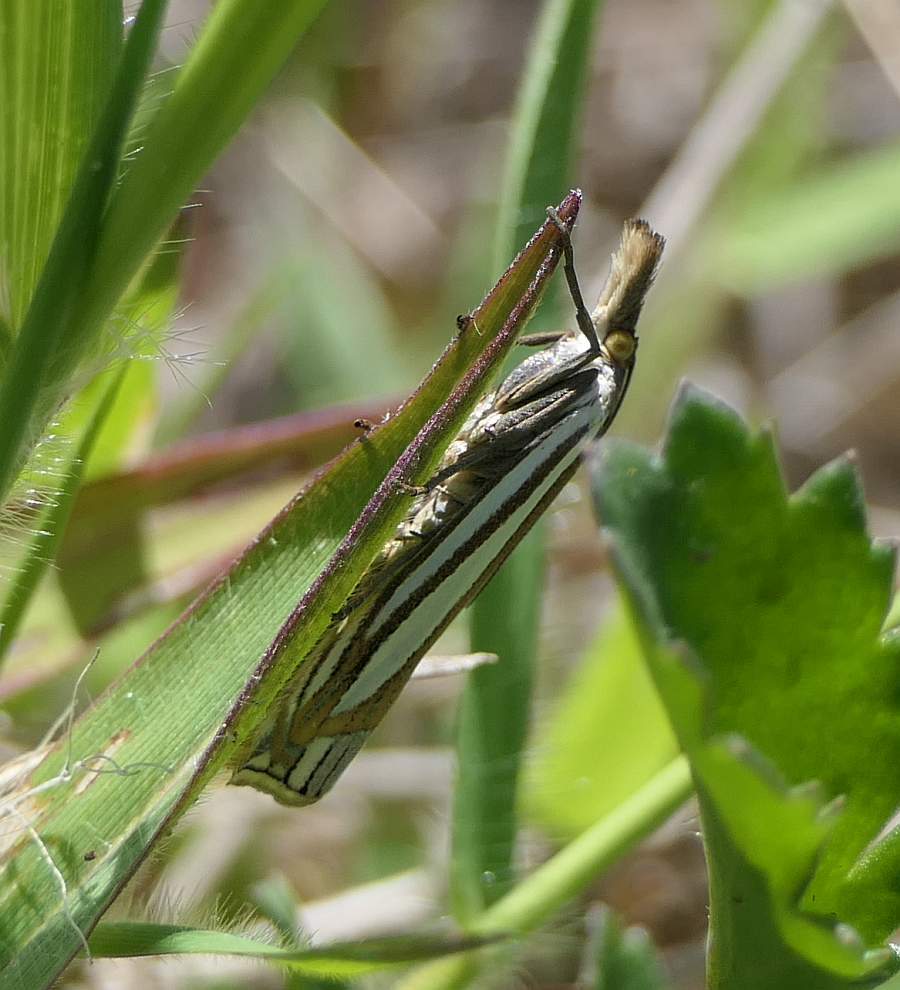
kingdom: Animalia
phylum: Arthropoda
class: Insecta
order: Lepidoptera
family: Crambidae
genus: Crambus
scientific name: Crambus laqueatellus
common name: Eastern grass-veneer
